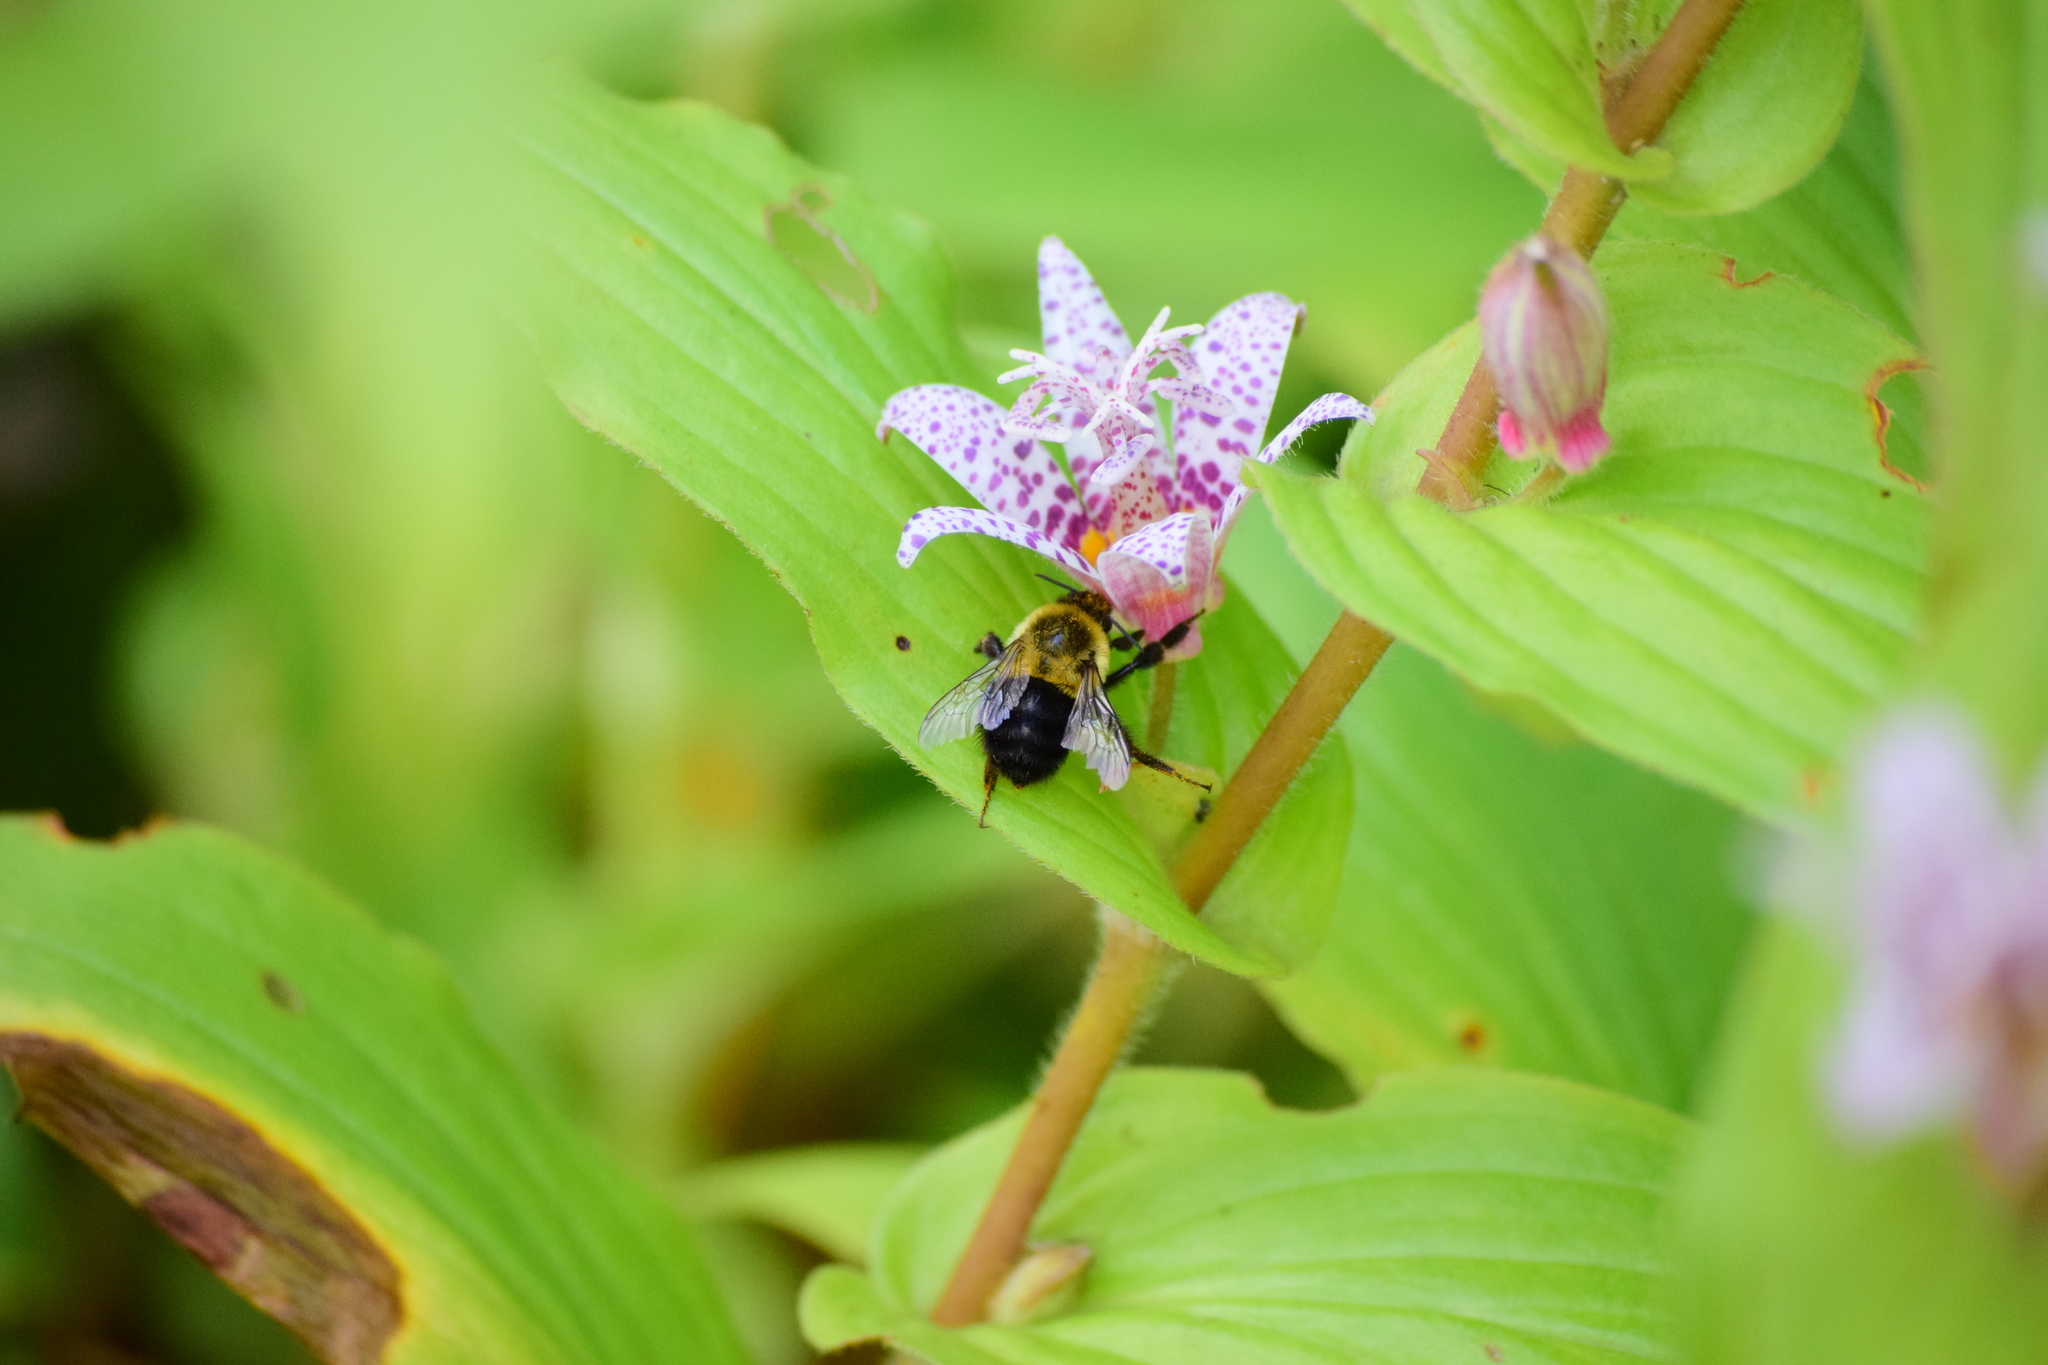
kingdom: Animalia
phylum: Arthropoda
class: Insecta
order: Hymenoptera
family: Apidae
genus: Bombus
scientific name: Bombus impatiens
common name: Common eastern bumble bee
